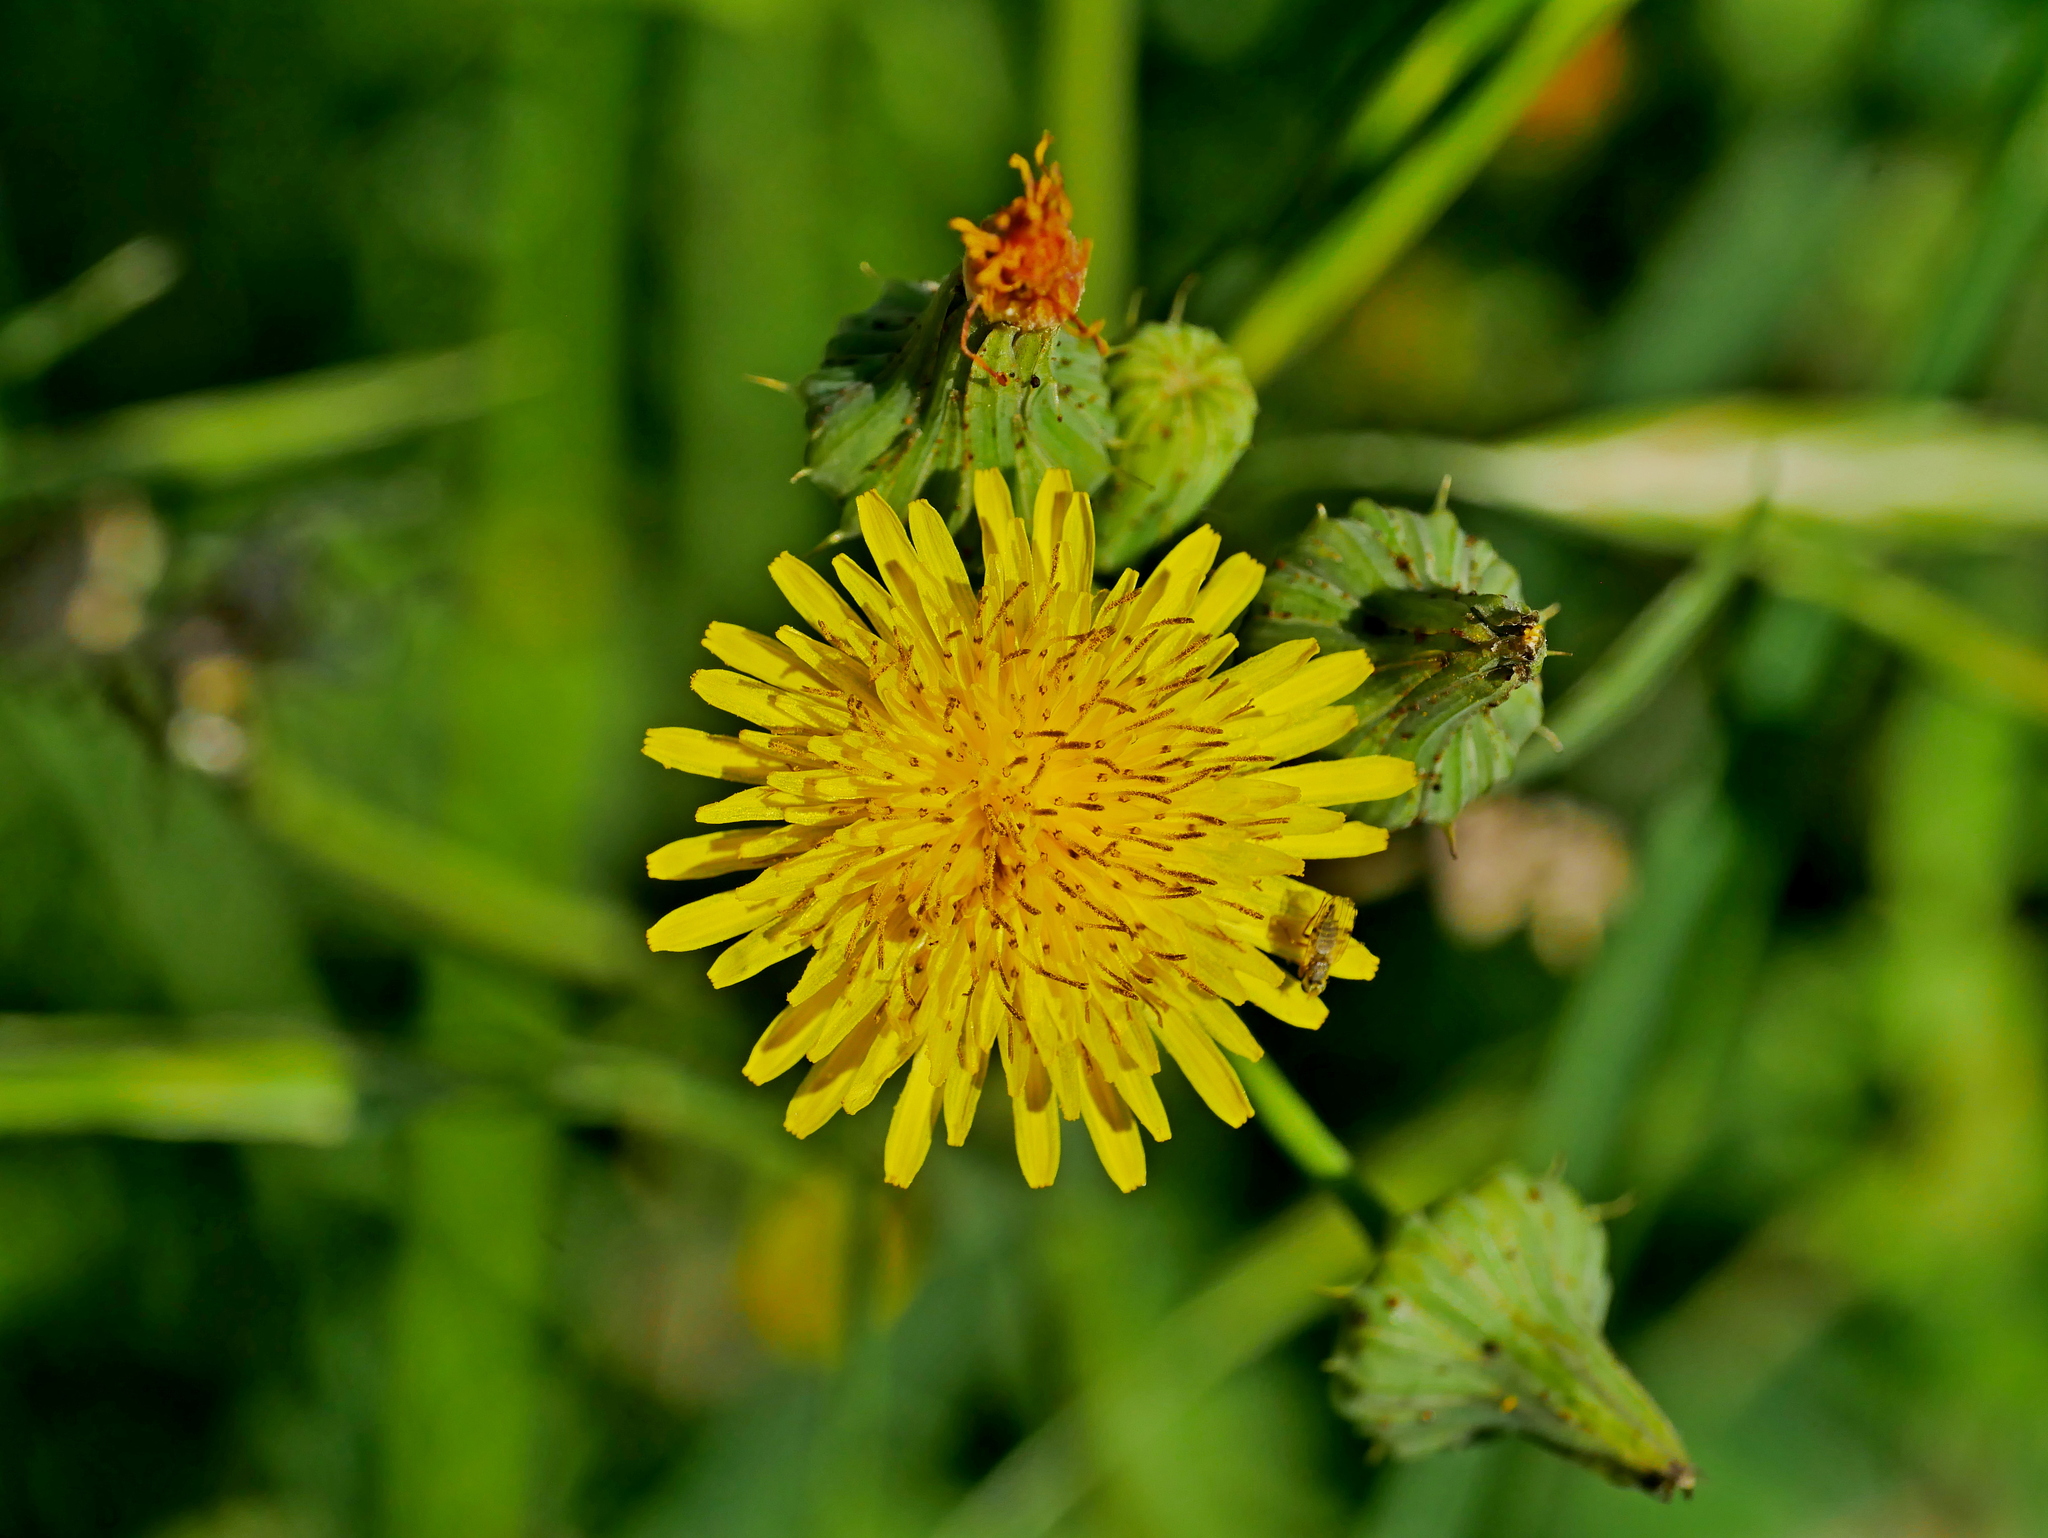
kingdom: Plantae
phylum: Tracheophyta
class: Magnoliopsida
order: Asterales
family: Asteraceae
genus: Sonchus
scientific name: Sonchus asper
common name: Prickly sow-thistle
